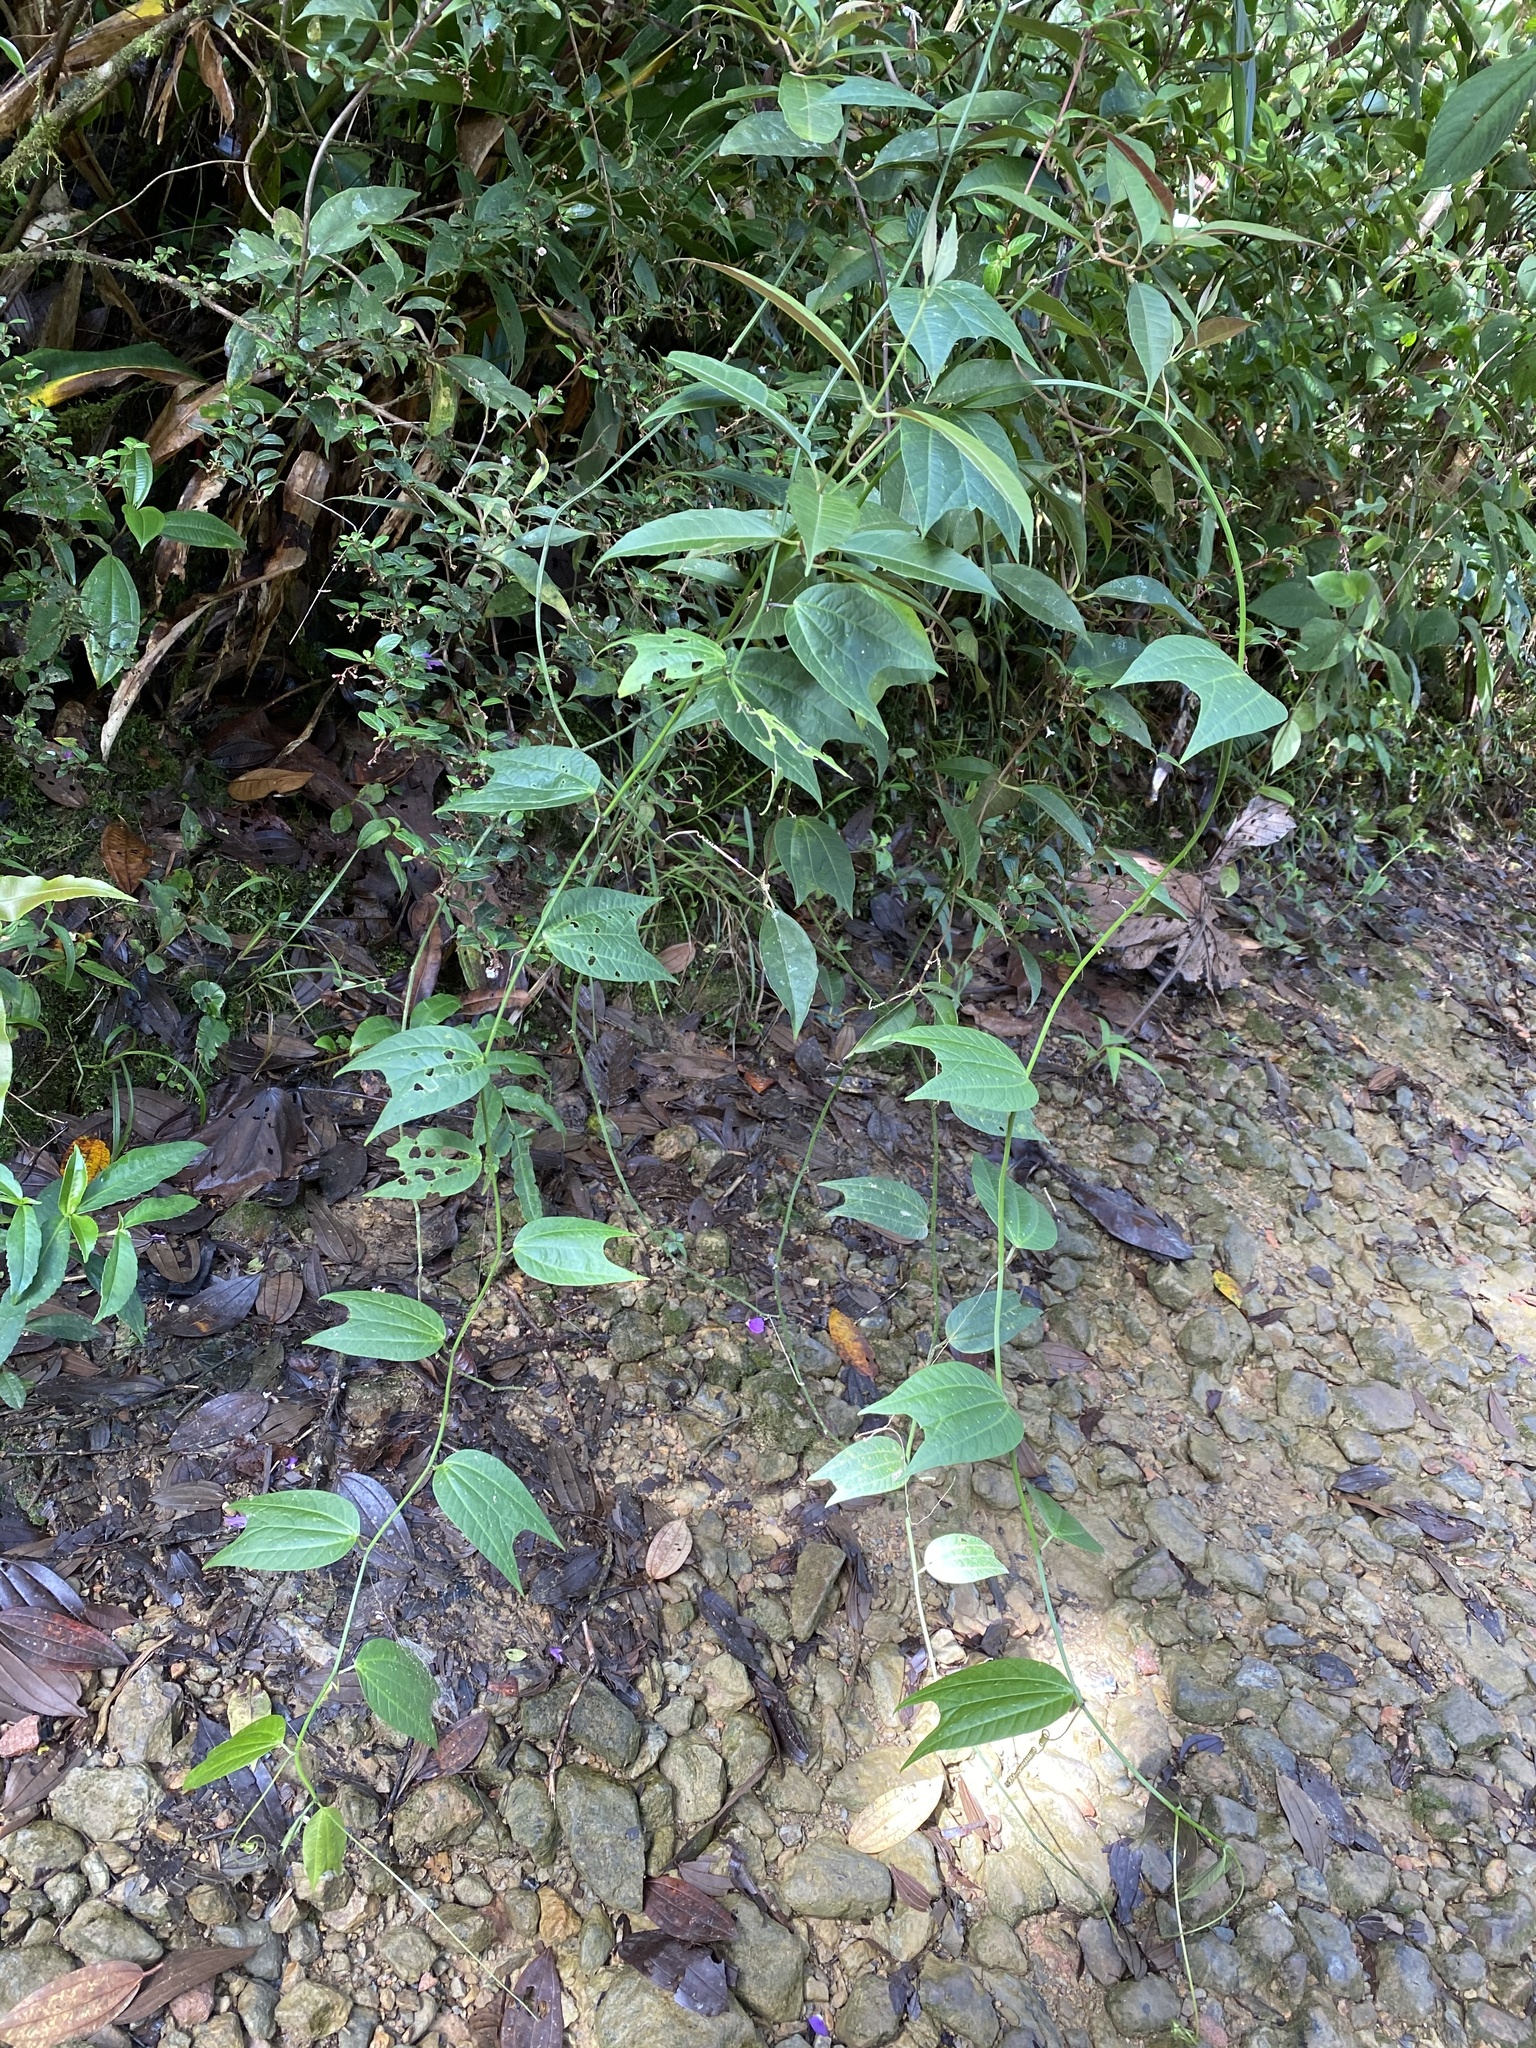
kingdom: Plantae
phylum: Tracheophyta
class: Magnoliopsida
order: Malpighiales
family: Passifloraceae
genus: Passiflora
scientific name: Passiflora chelidonea
